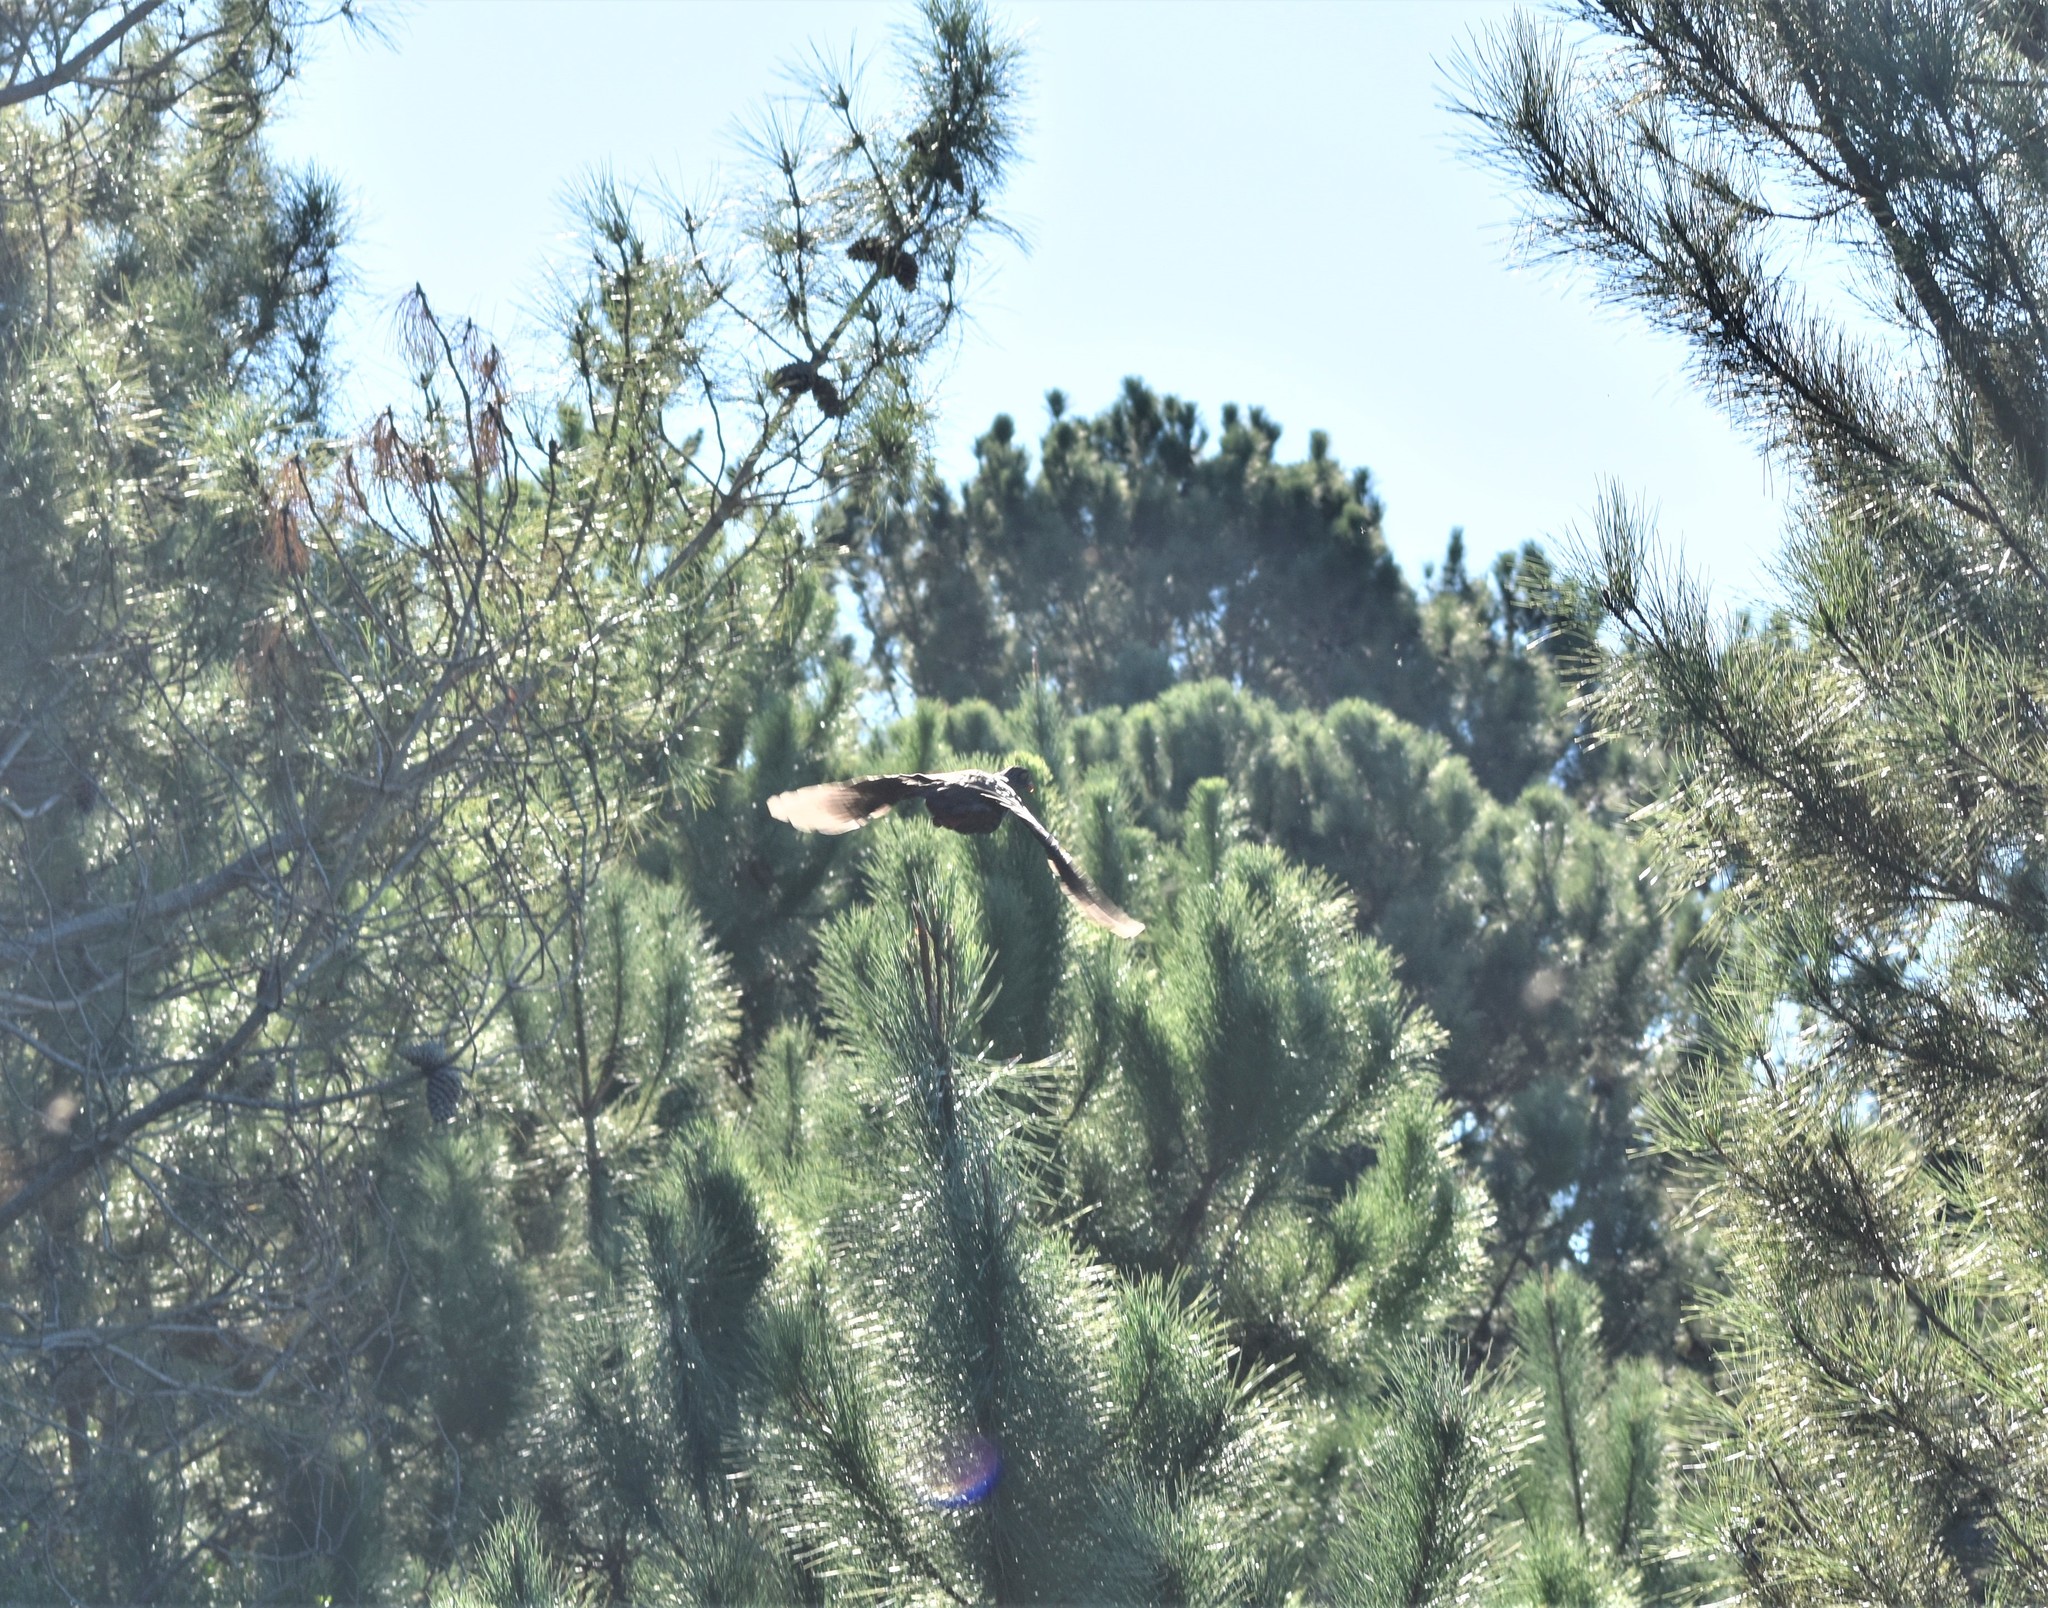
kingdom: Animalia
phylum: Chordata
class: Aves
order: Galliformes
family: Phasianidae
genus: Pternistis
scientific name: Pternistis afer
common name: Red-necked spurfowl
